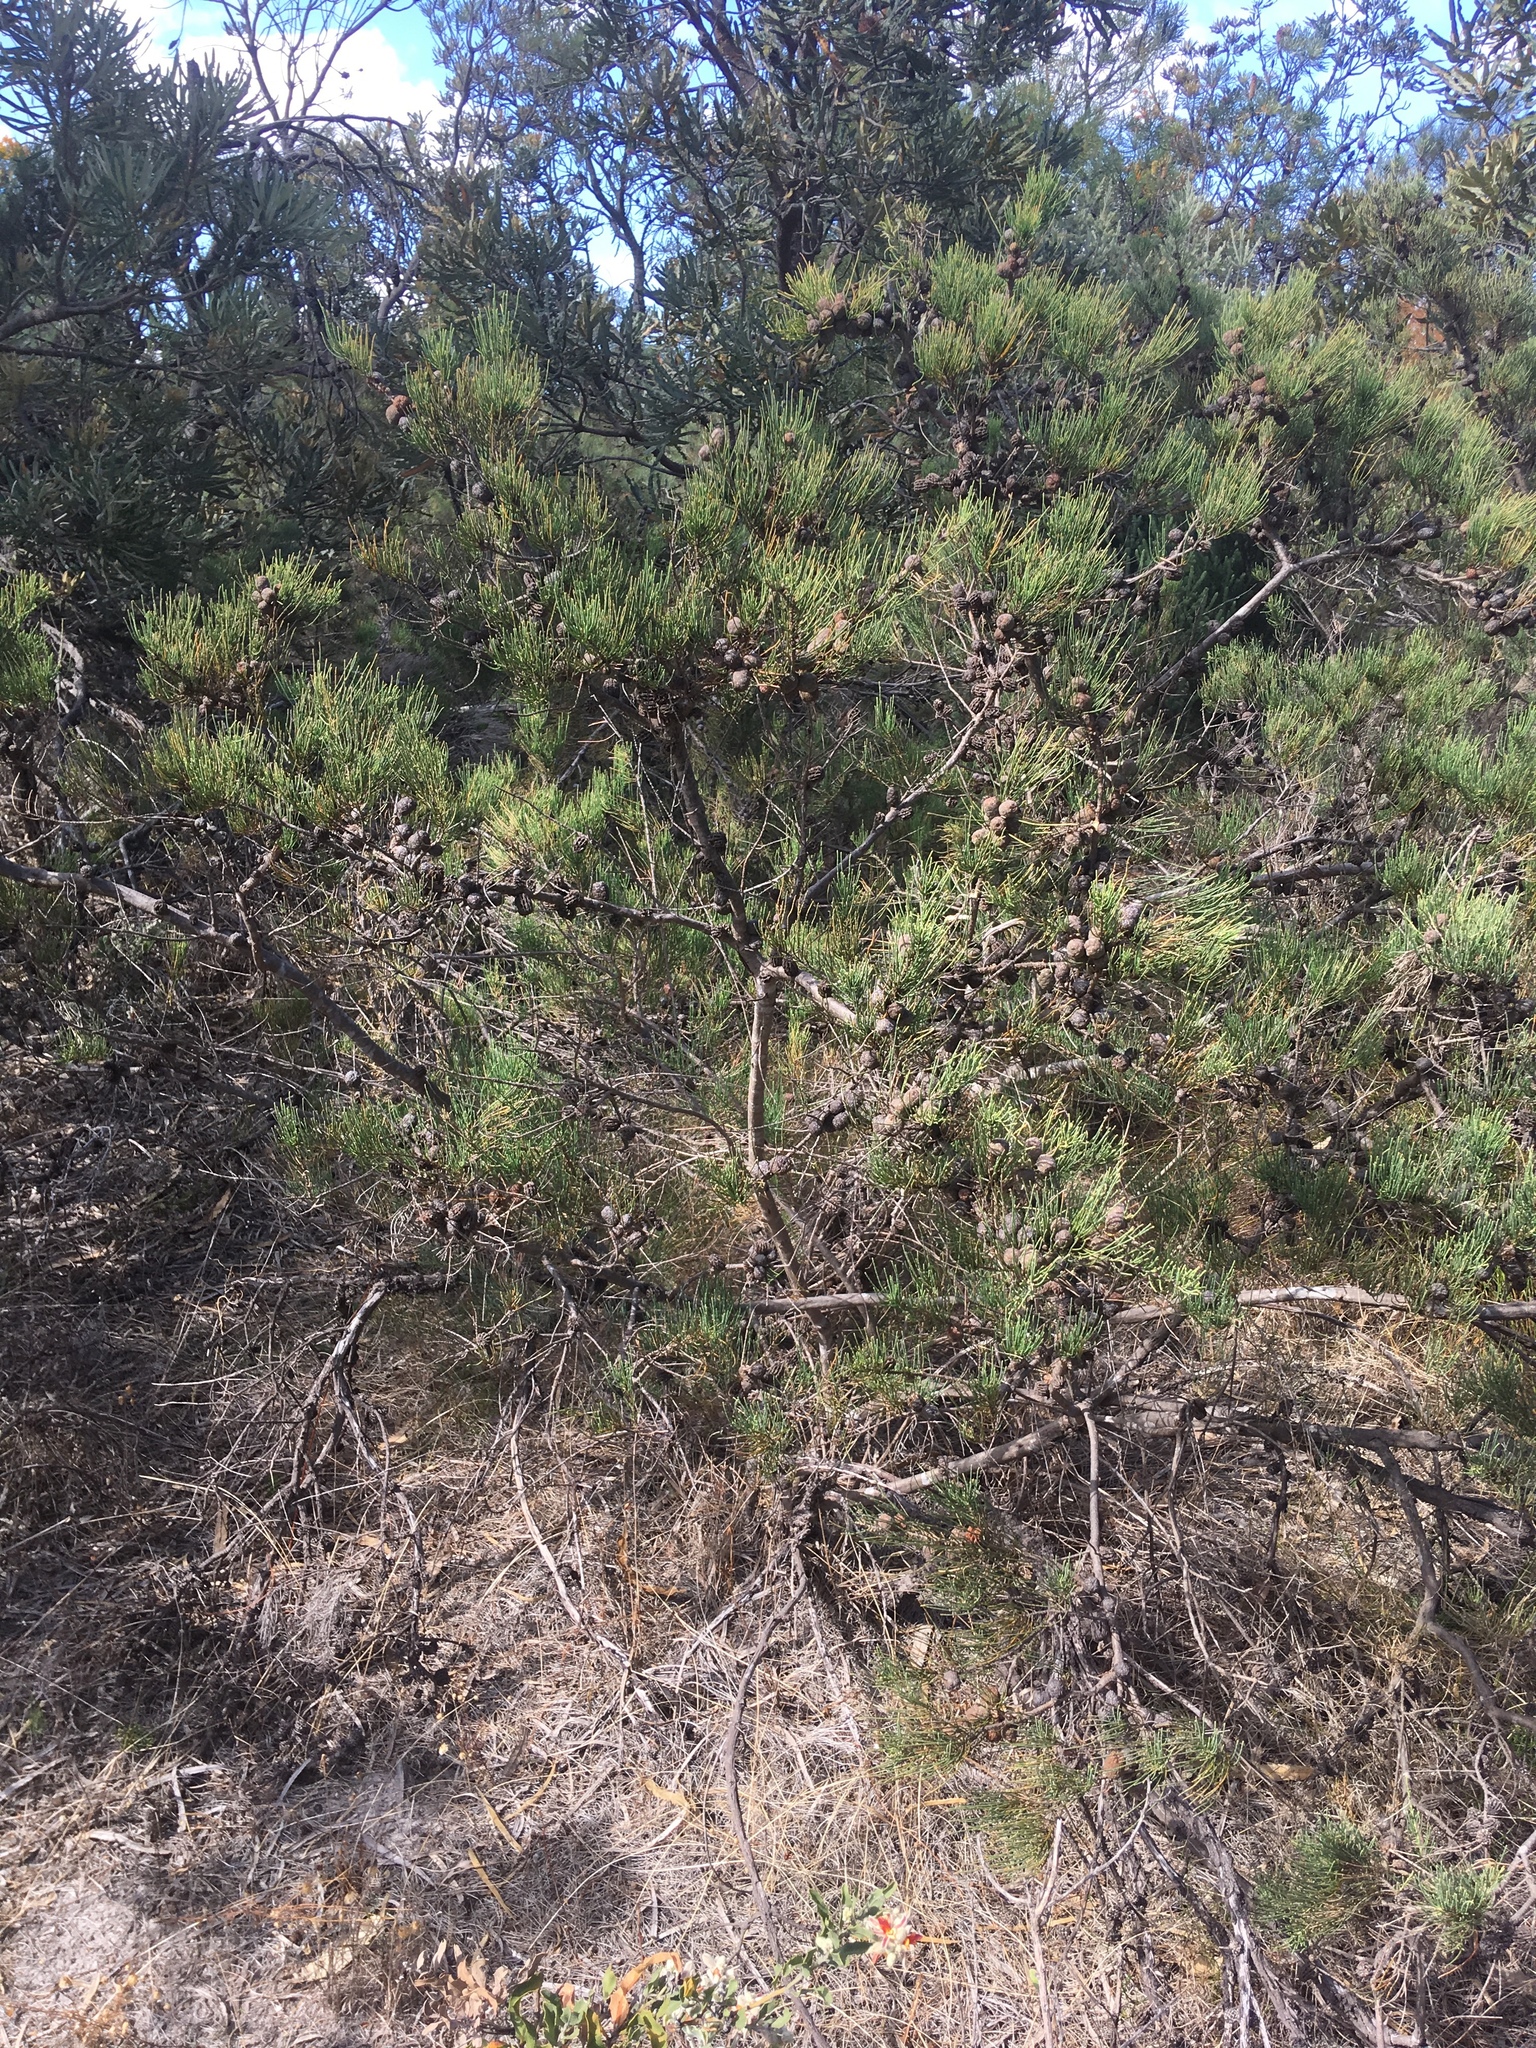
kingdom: Plantae
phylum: Tracheophyta
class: Magnoliopsida
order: Fagales
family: Casuarinaceae
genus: Allocasuarina
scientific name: Allocasuarina humilis
